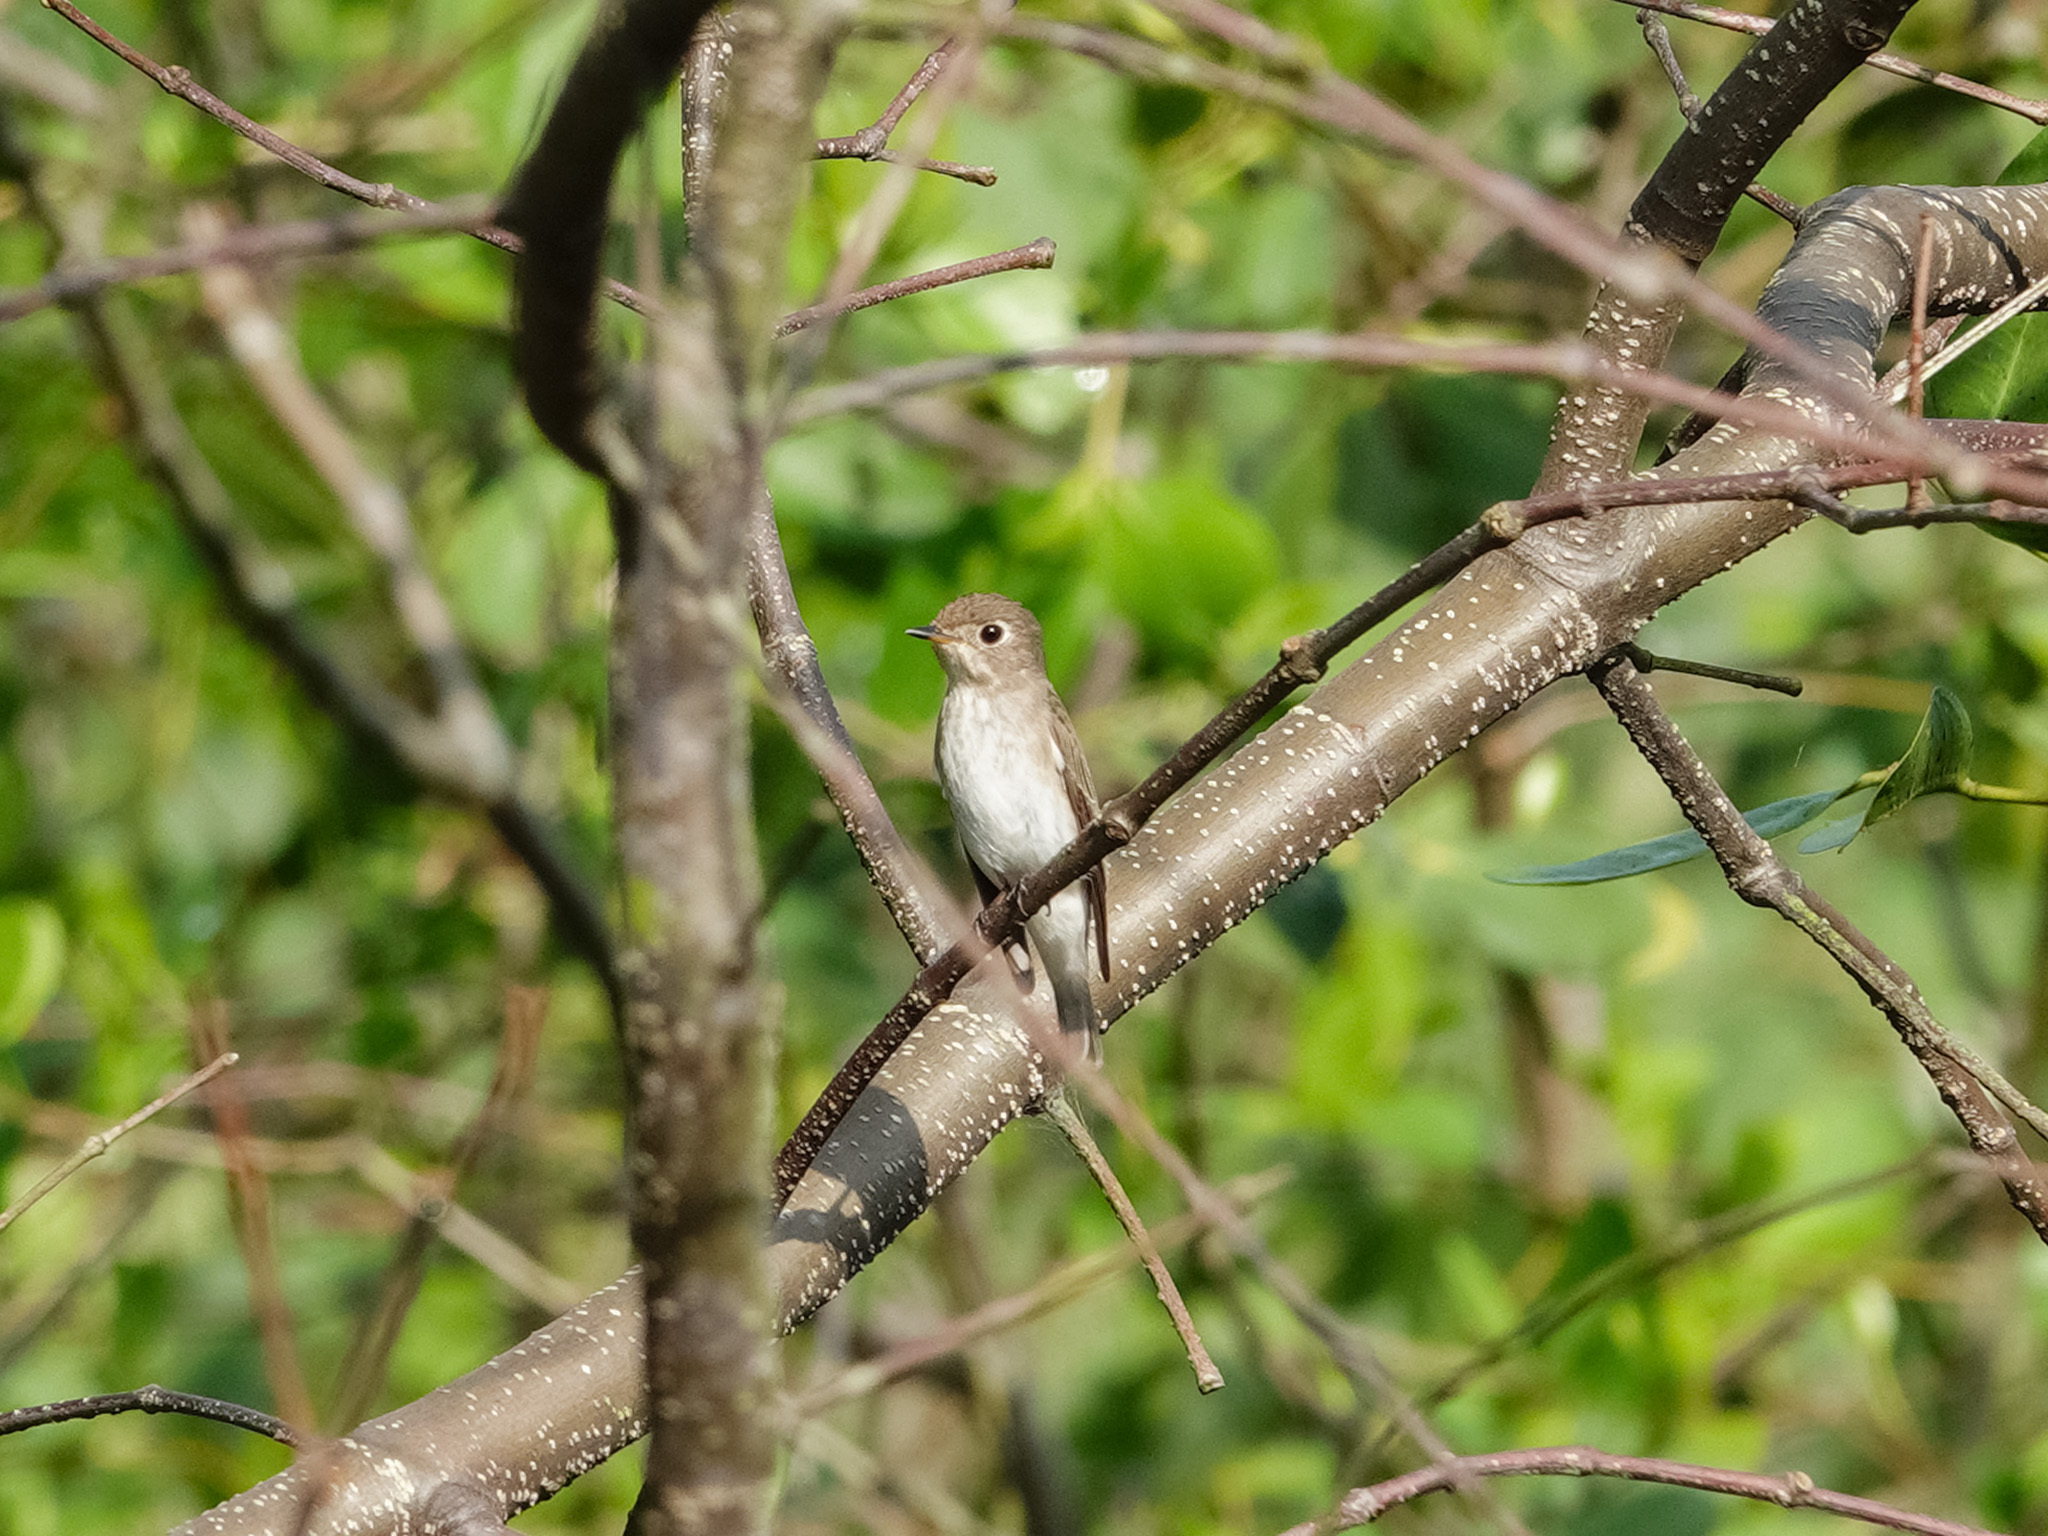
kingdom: Animalia
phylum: Chordata
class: Aves
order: Passeriformes
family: Muscicapidae
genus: Muscicapa
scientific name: Muscicapa latirostris
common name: Asian brown flycatcher
